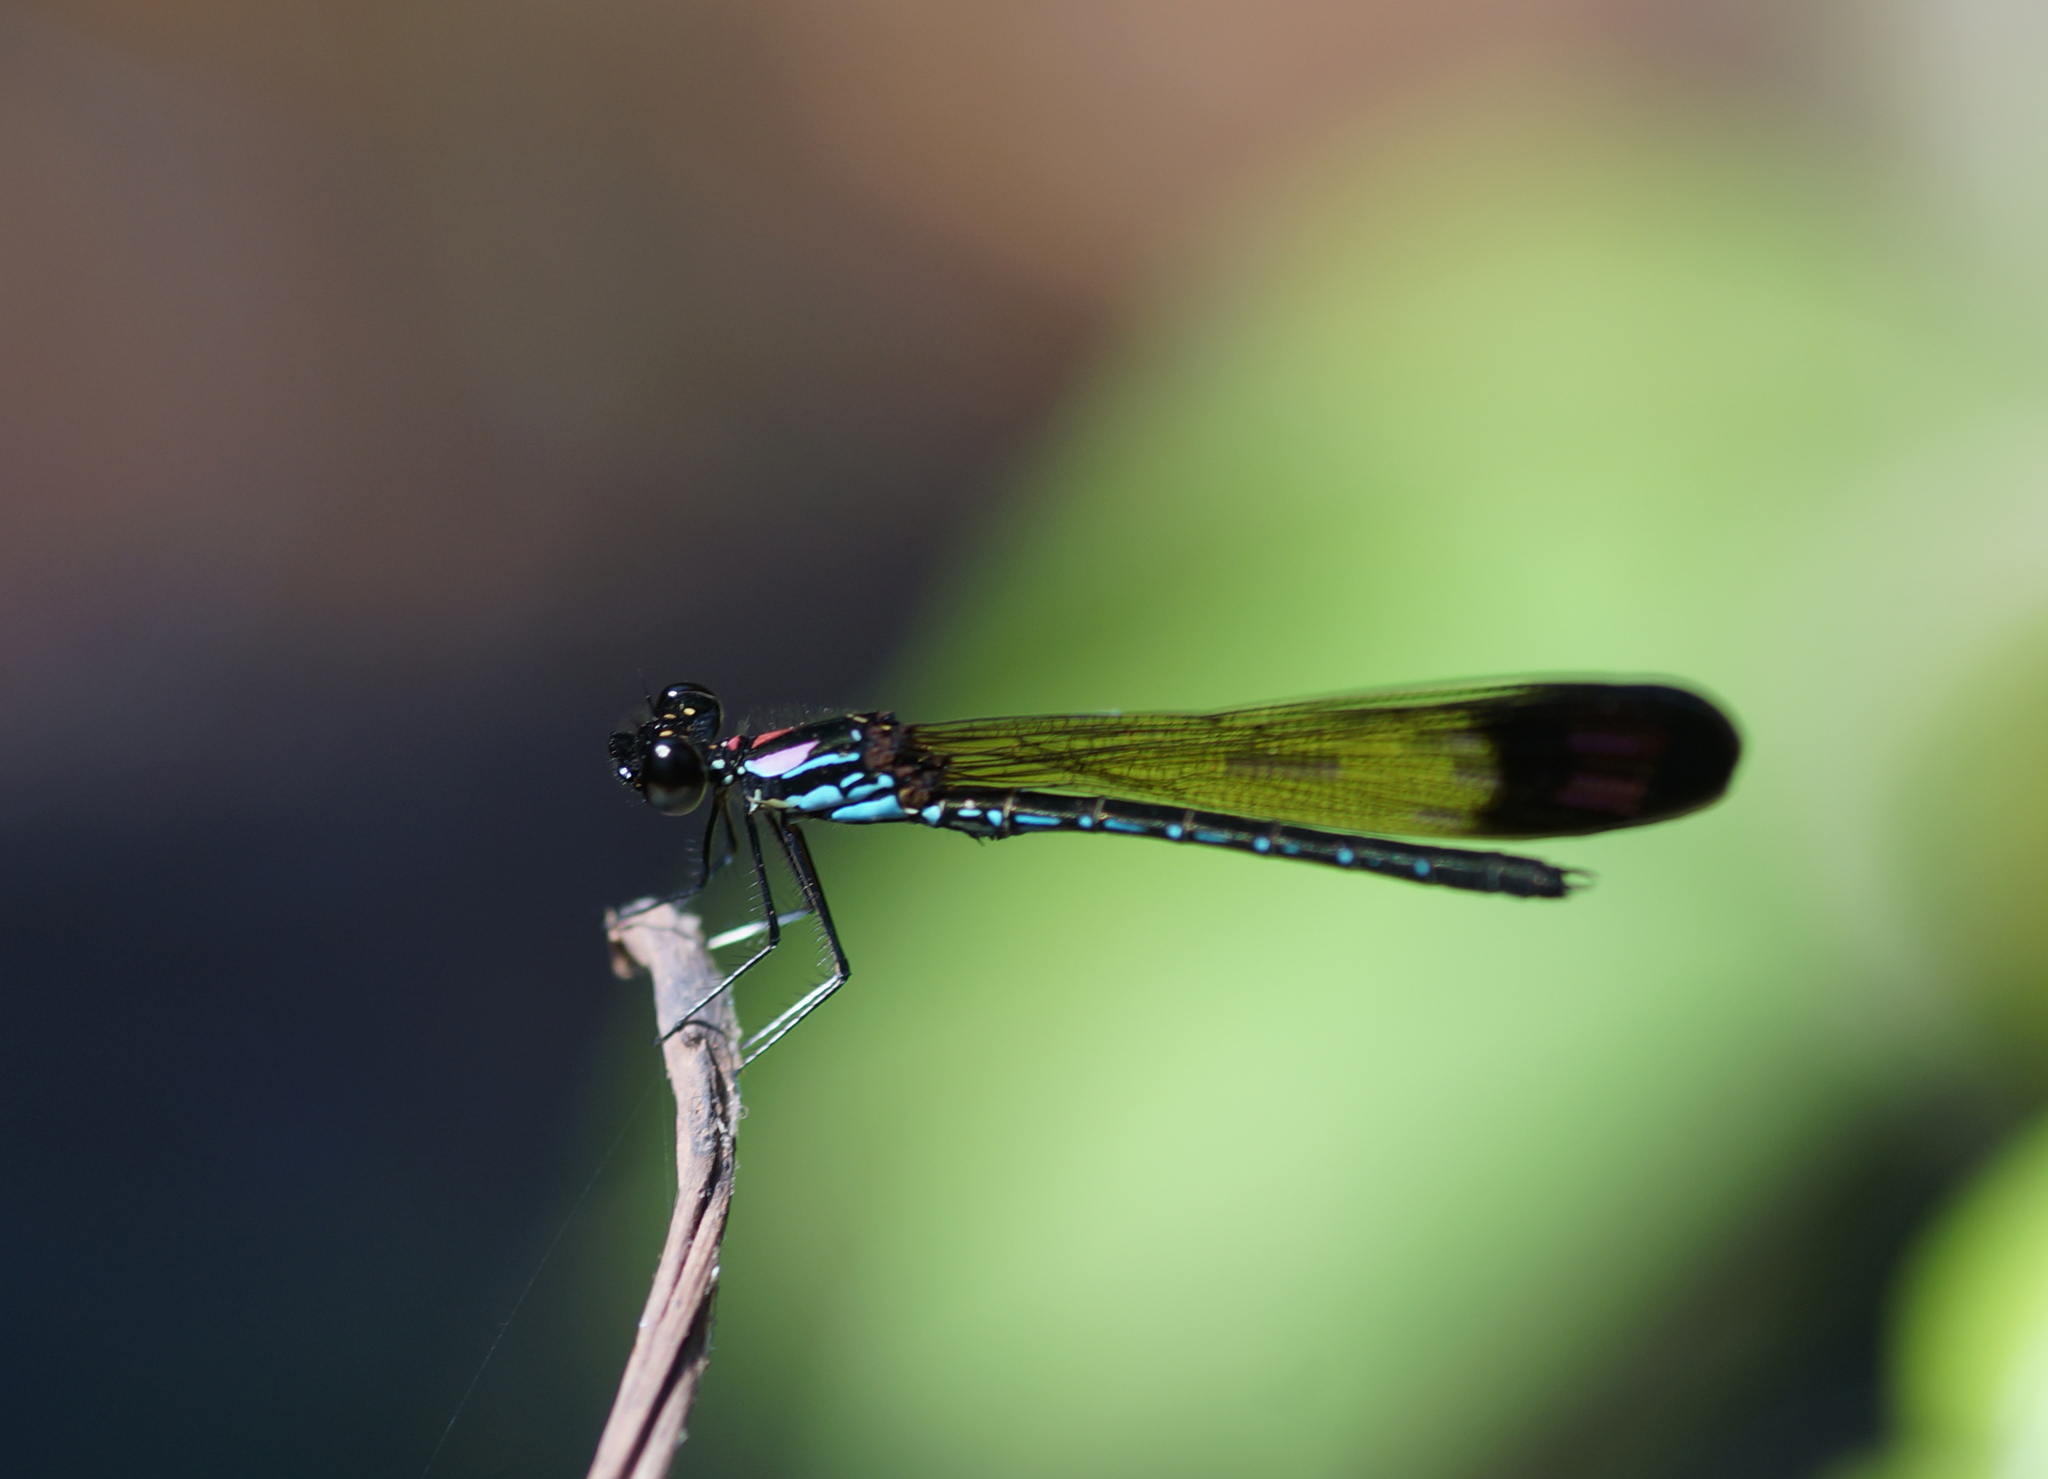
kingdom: Animalia
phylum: Arthropoda
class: Insecta
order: Odonata
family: Chlorocyphidae
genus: Heliocypha
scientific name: Heliocypha biforata
